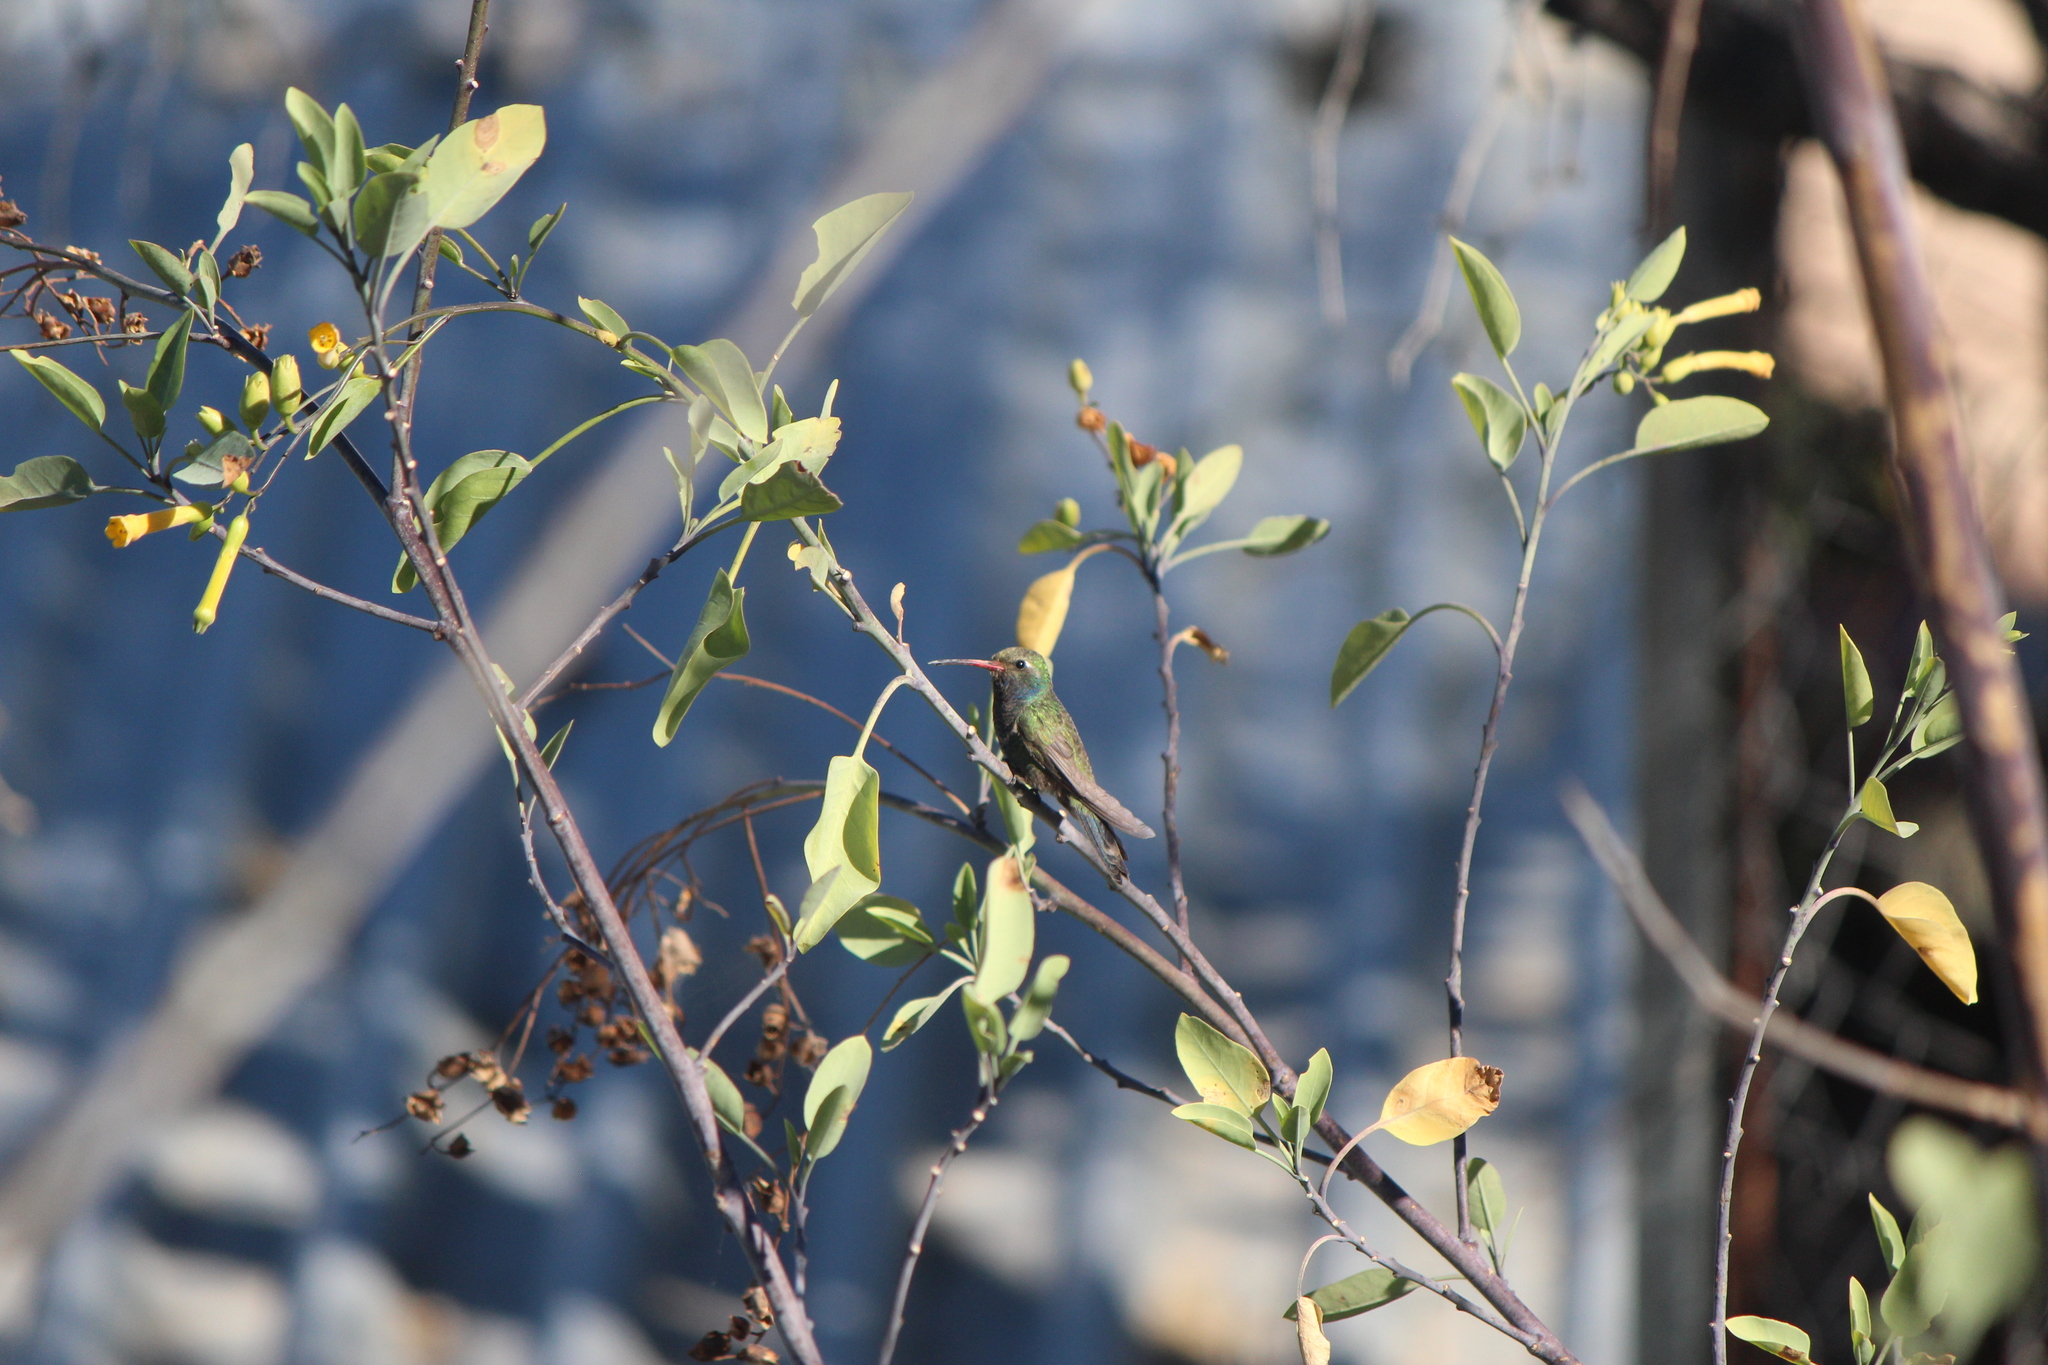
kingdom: Animalia
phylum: Chordata
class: Aves
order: Apodiformes
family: Trochilidae
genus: Cynanthus
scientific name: Cynanthus latirostris
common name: Broad-billed hummingbird
